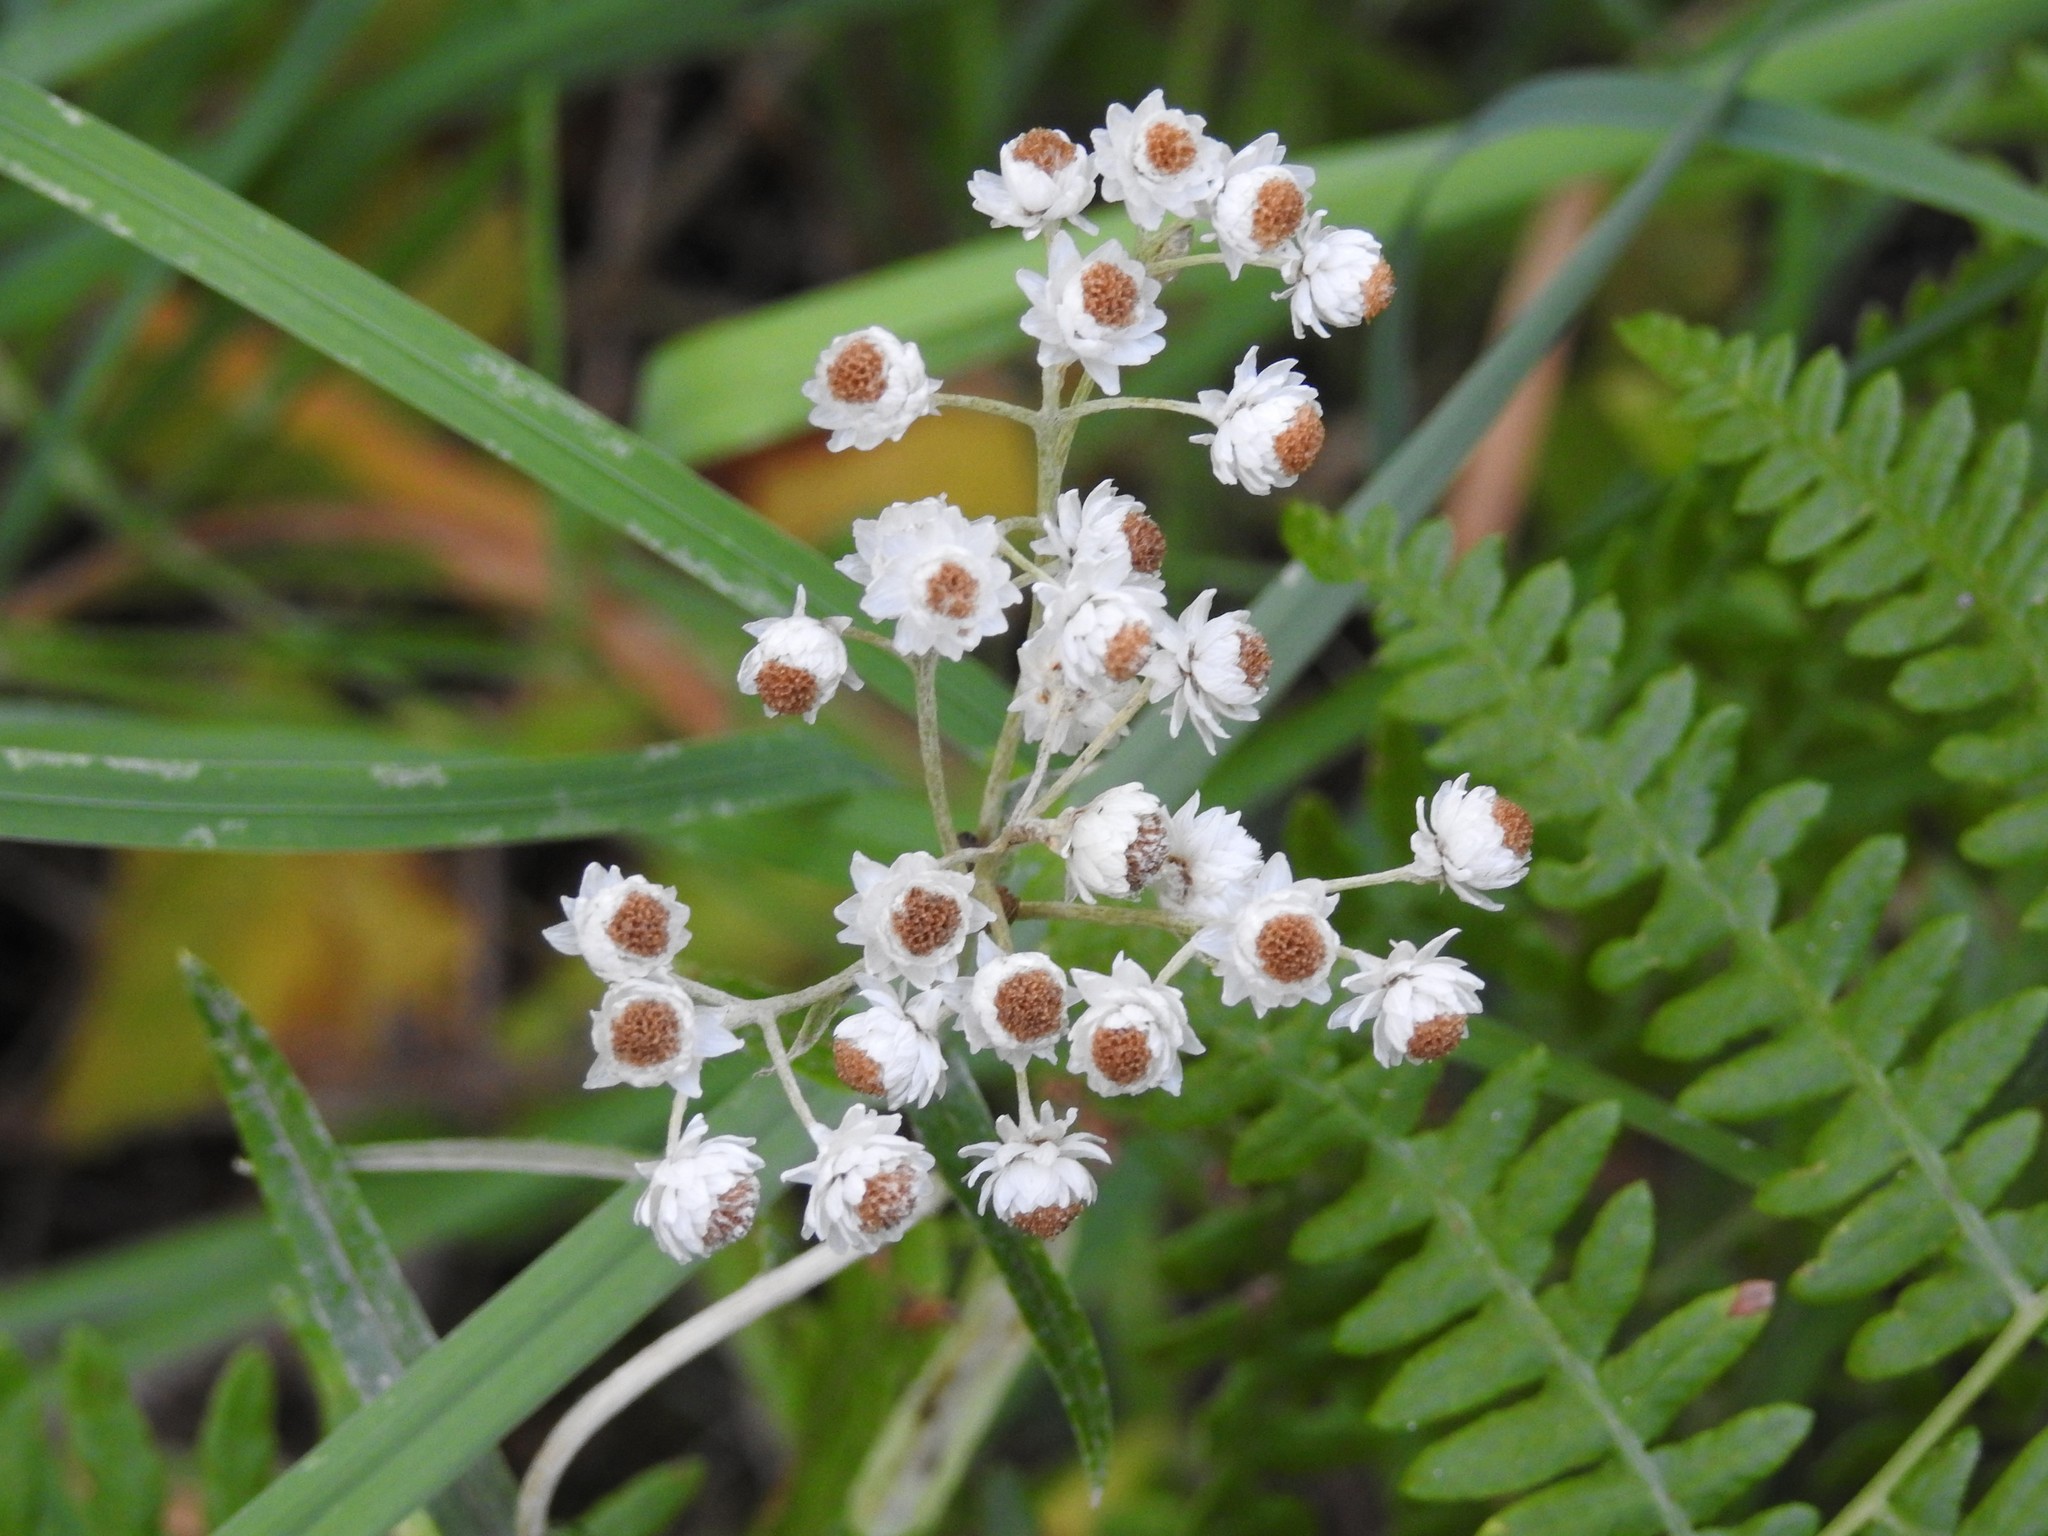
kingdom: Plantae
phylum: Tracheophyta
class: Magnoliopsida
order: Asterales
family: Asteraceae
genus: Anaphalis
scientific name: Anaphalis margaritacea
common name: Pearly everlasting
